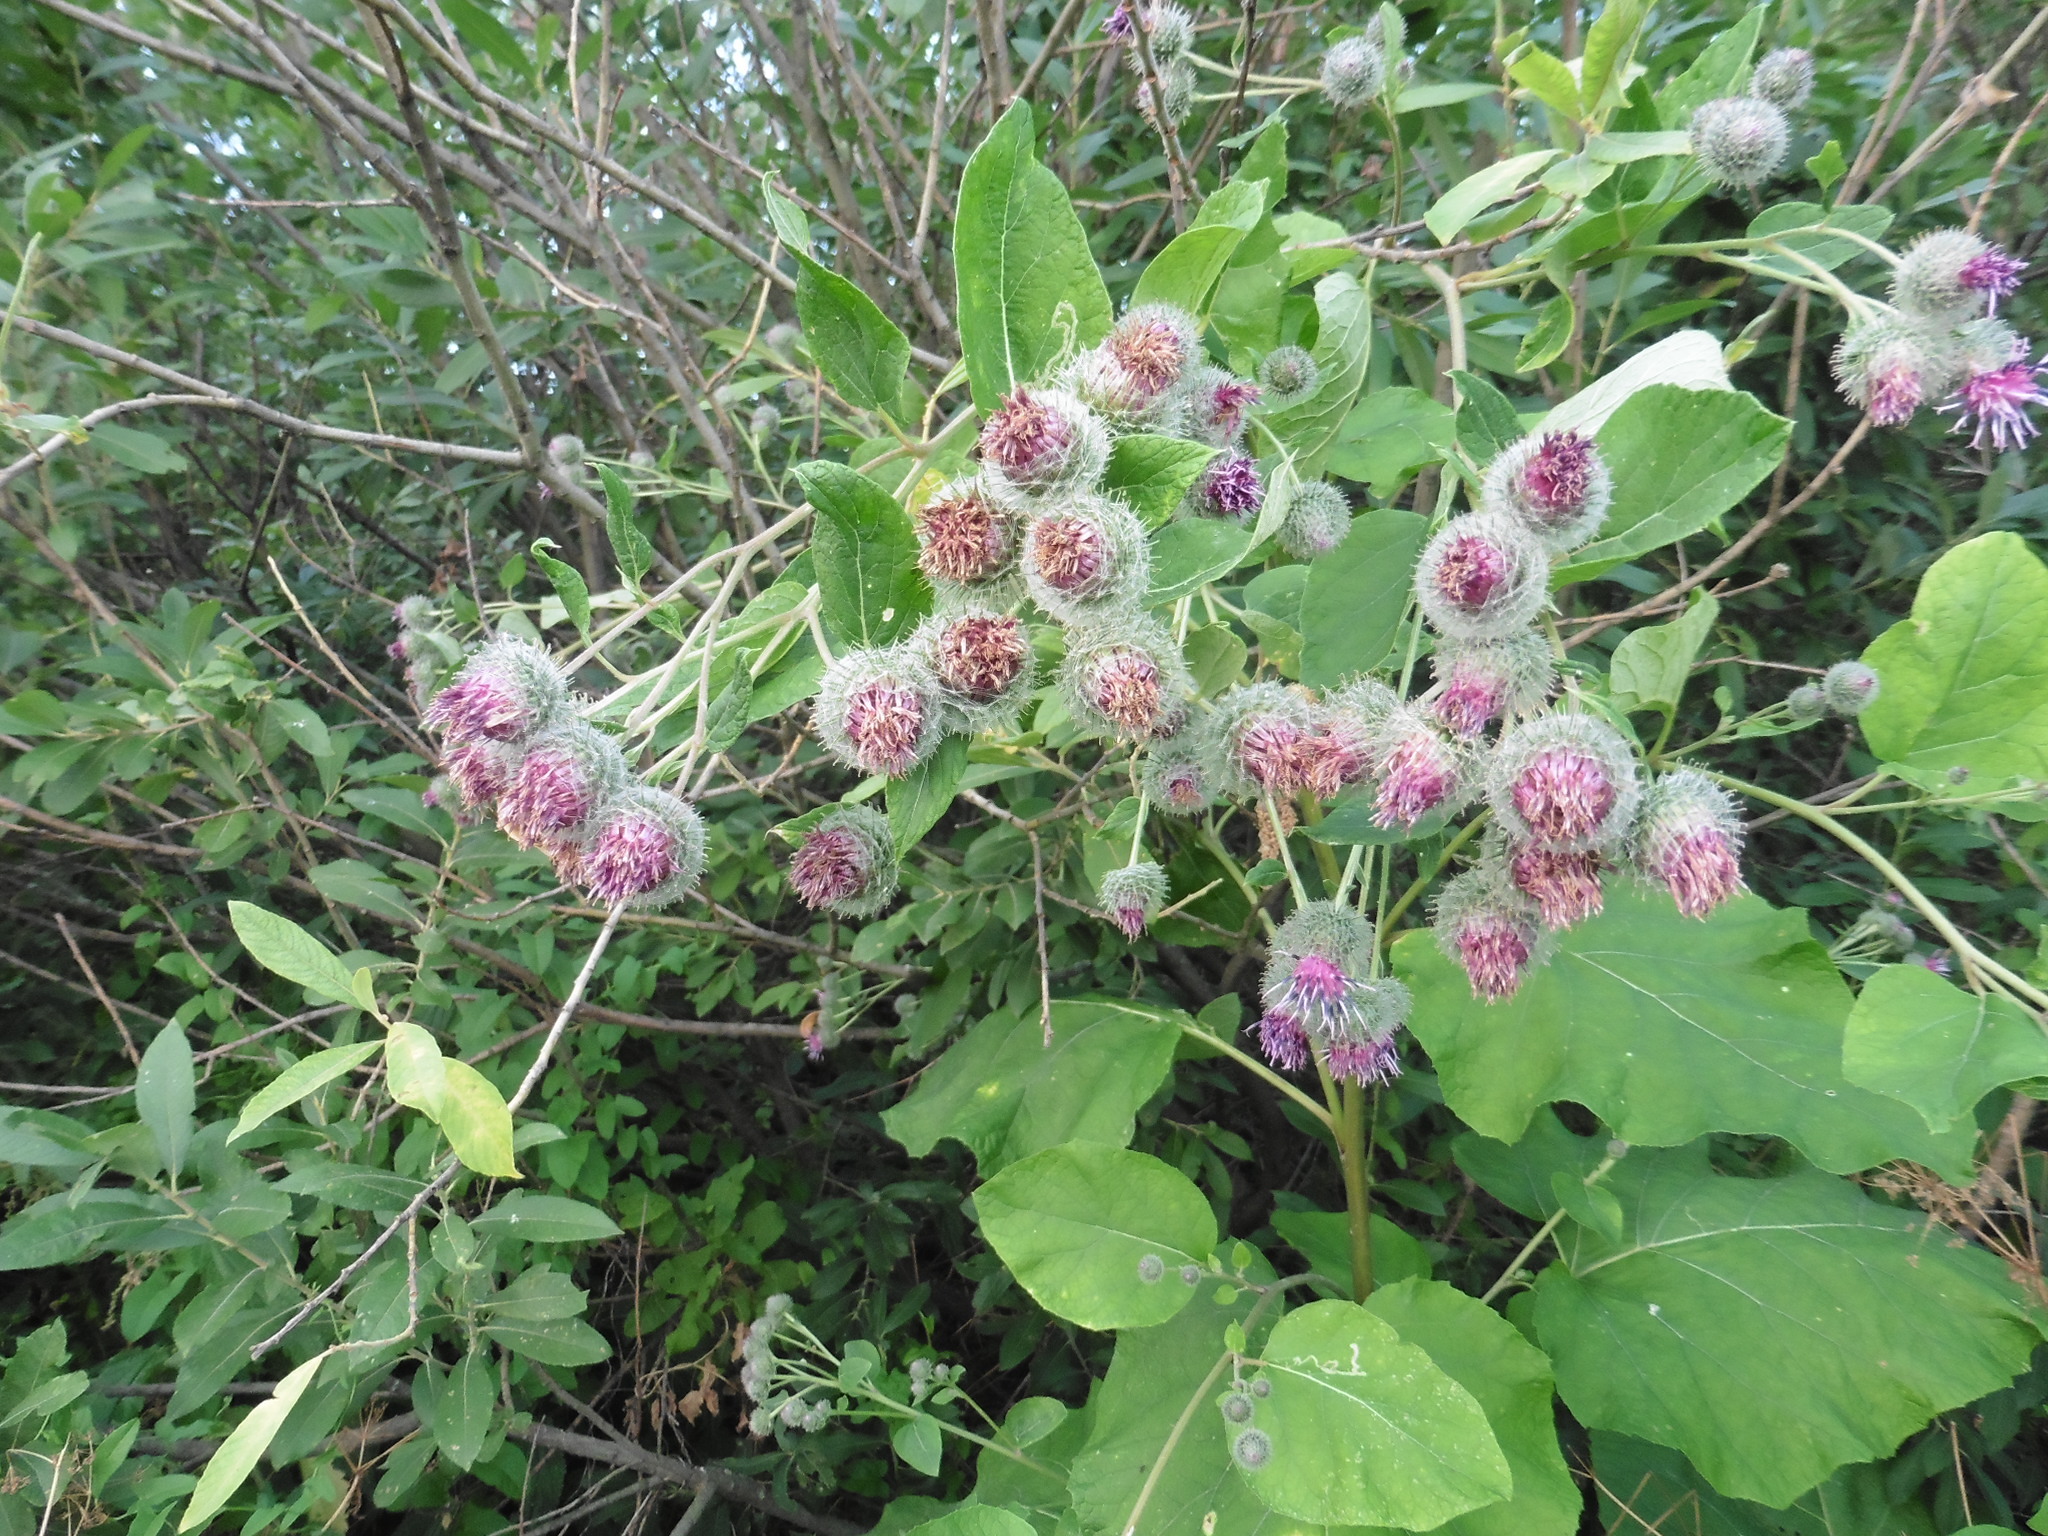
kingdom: Plantae
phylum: Tracheophyta
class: Magnoliopsida
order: Asterales
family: Asteraceae
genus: Arctium
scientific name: Arctium tomentosum
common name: Woolly burdock
